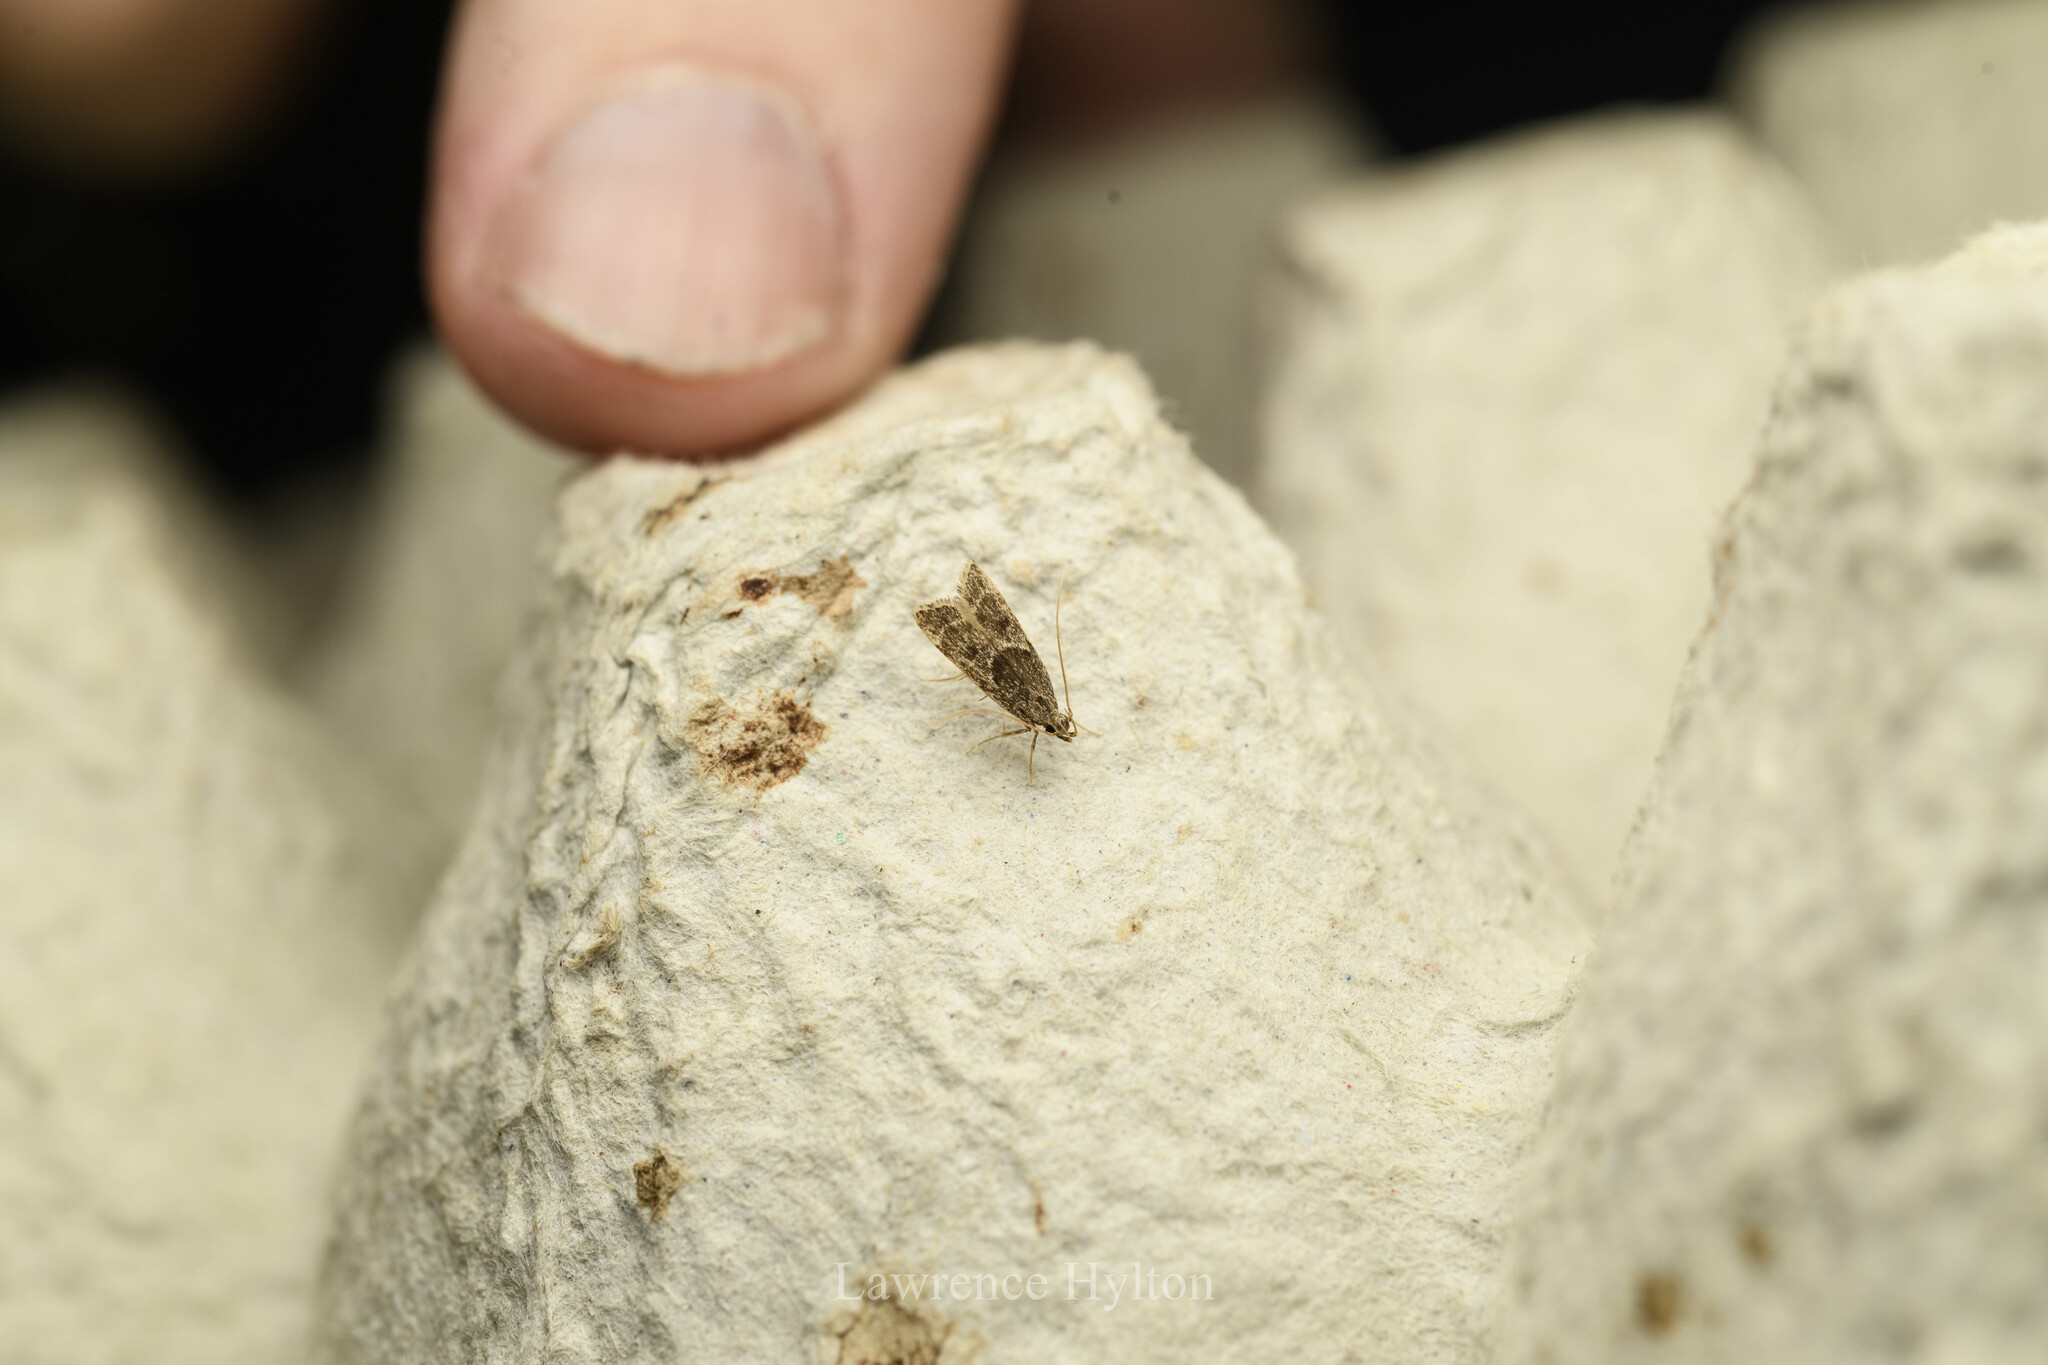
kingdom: Animalia
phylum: Arthropoda
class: Insecta
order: Lepidoptera
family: Lecithoceridae
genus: Athymoris
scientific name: Athymoris martialis
